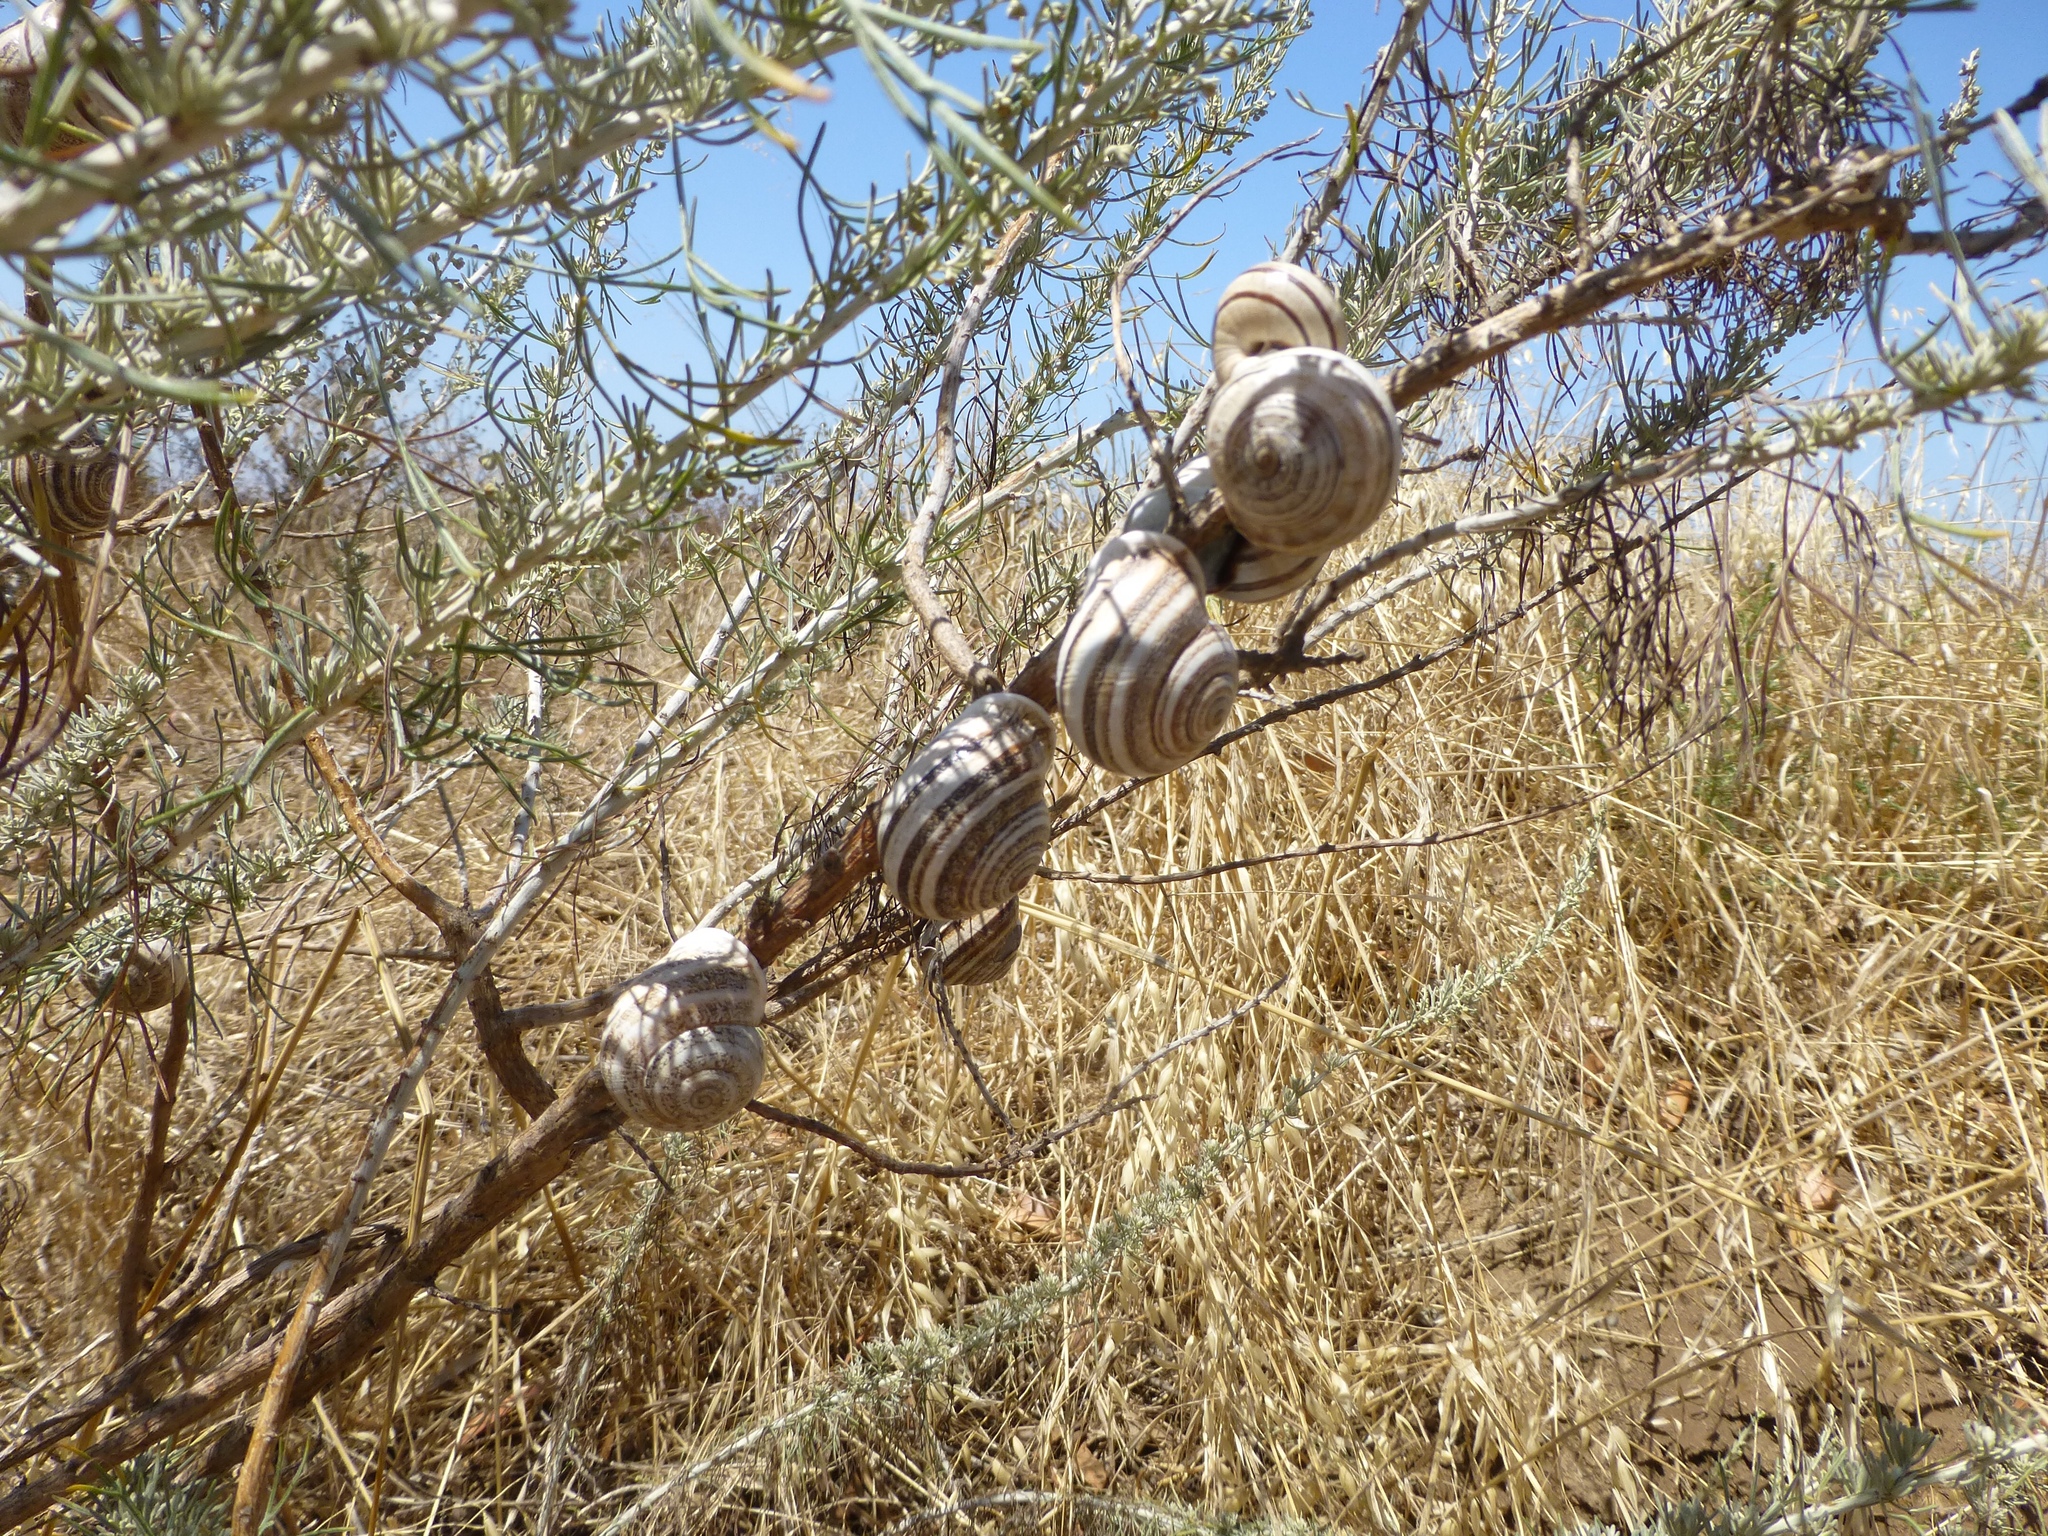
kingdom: Animalia
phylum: Mollusca
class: Gastropoda
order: Stylommatophora
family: Helicidae
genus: Otala
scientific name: Otala lactea
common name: Milk snail
